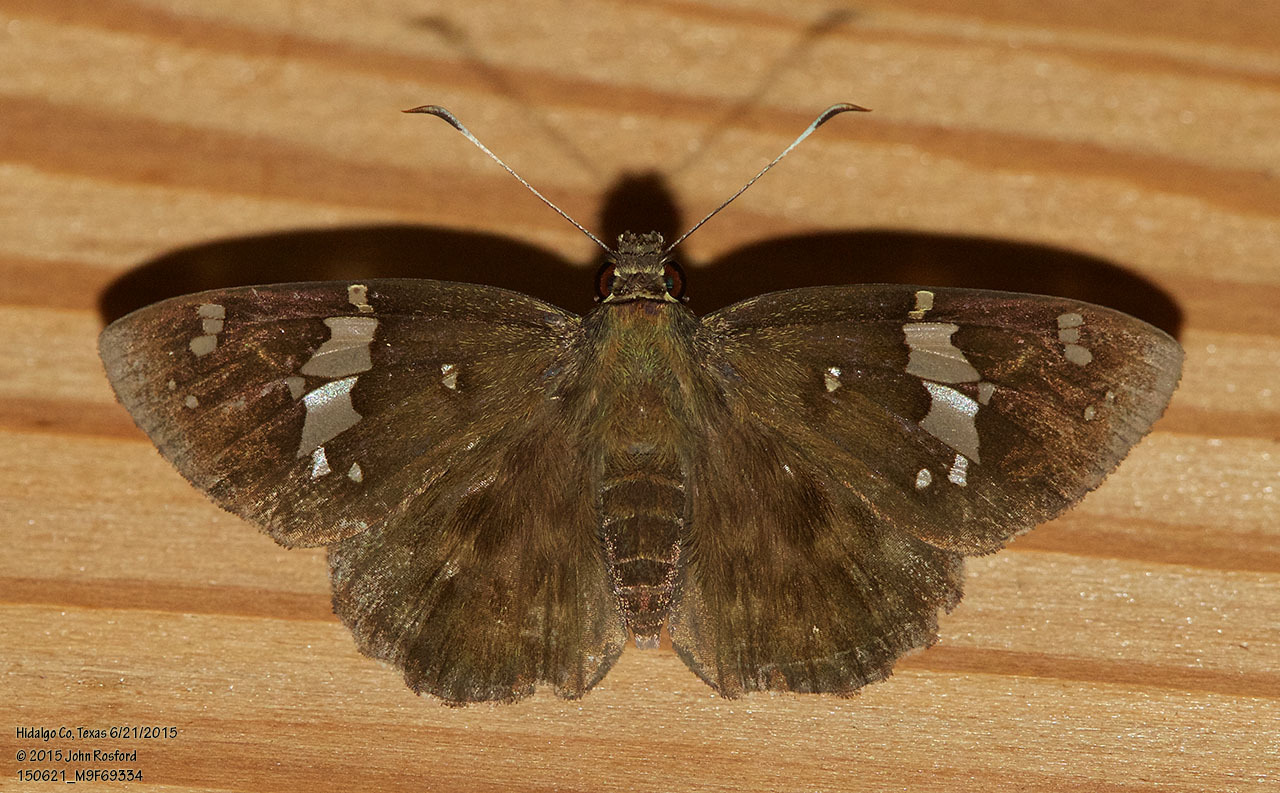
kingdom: Animalia
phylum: Arthropoda
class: Insecta
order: Lepidoptera
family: Hesperiidae
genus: Celaenorrhinus
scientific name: Celaenorrhinus fritzgaertneri
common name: Fritzgaertner's flat
